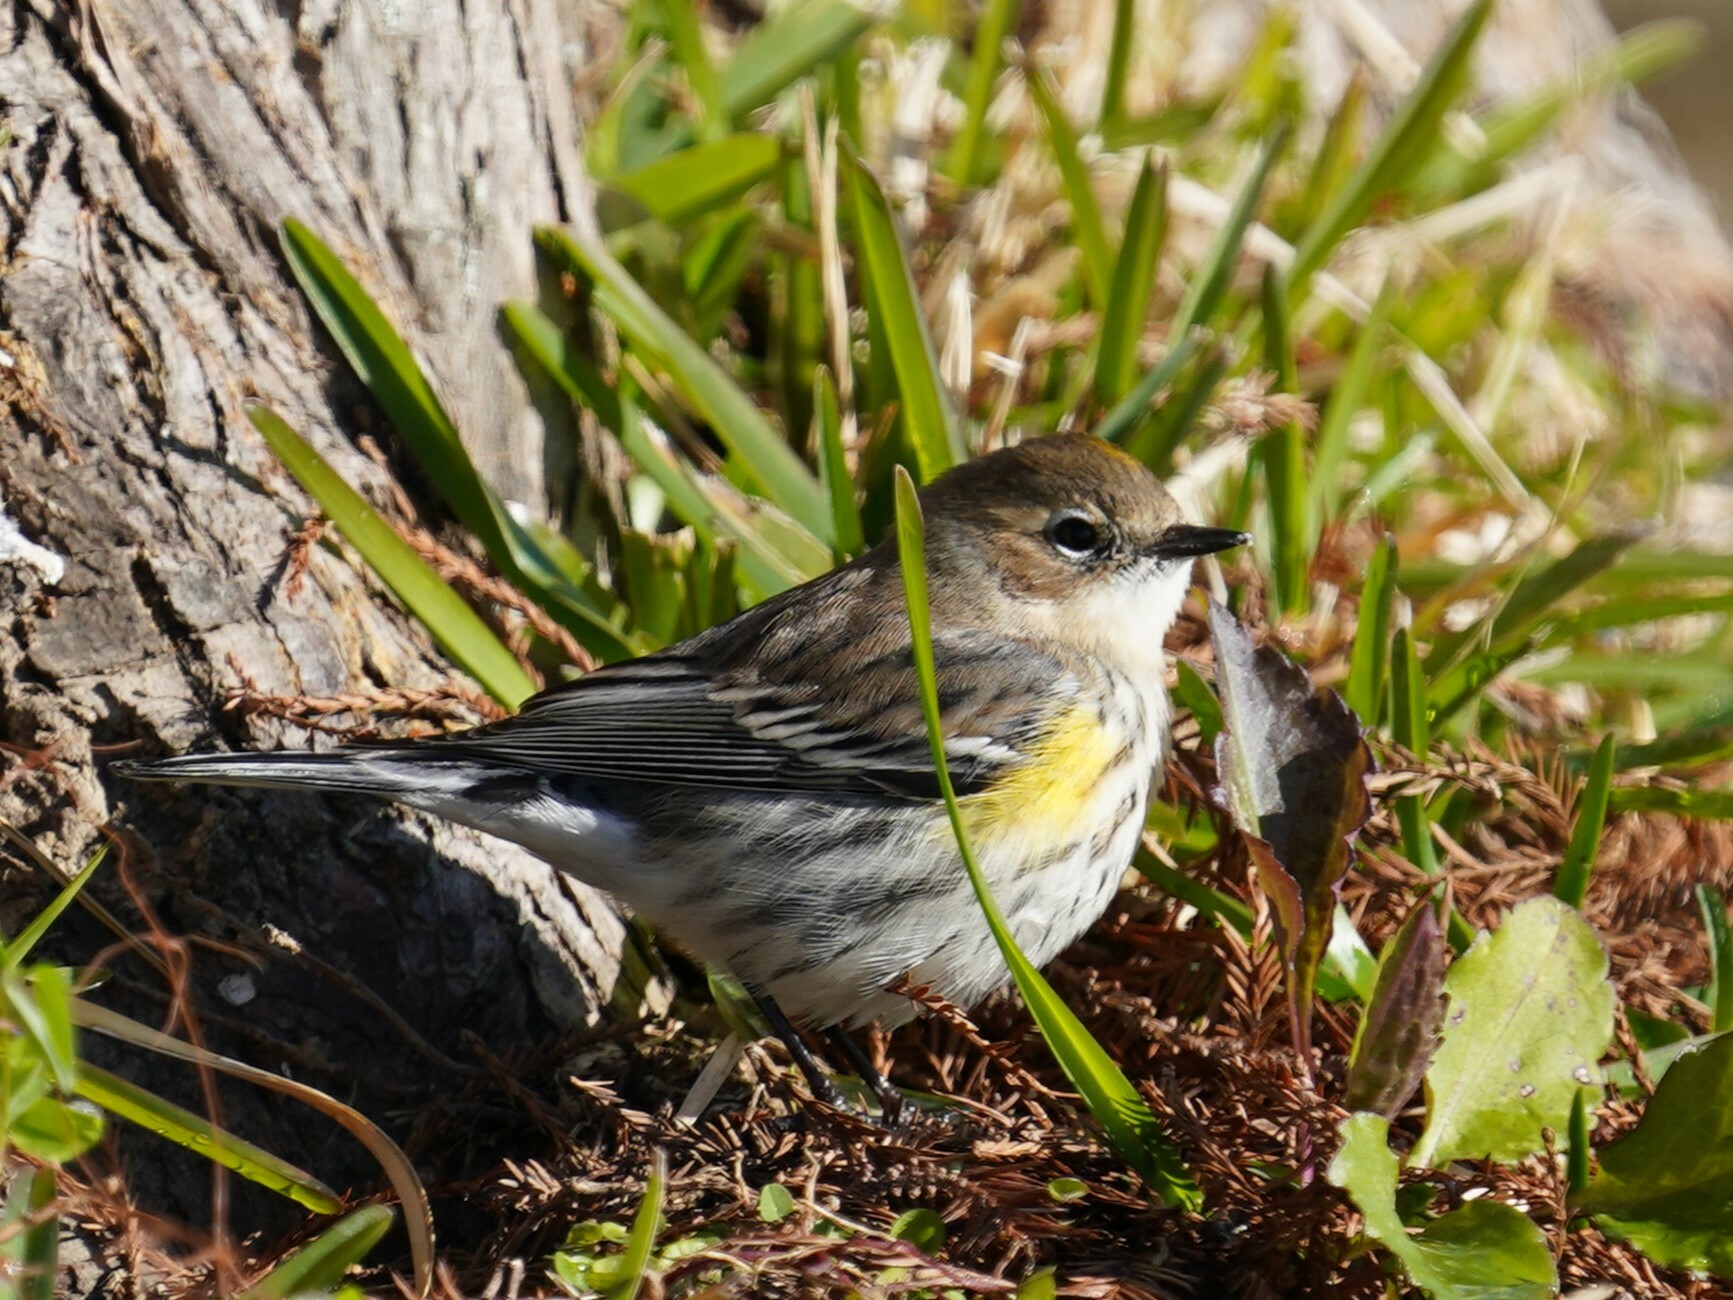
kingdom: Animalia
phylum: Chordata
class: Aves
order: Passeriformes
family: Parulidae
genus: Setophaga
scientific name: Setophaga coronata
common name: Myrtle warbler
